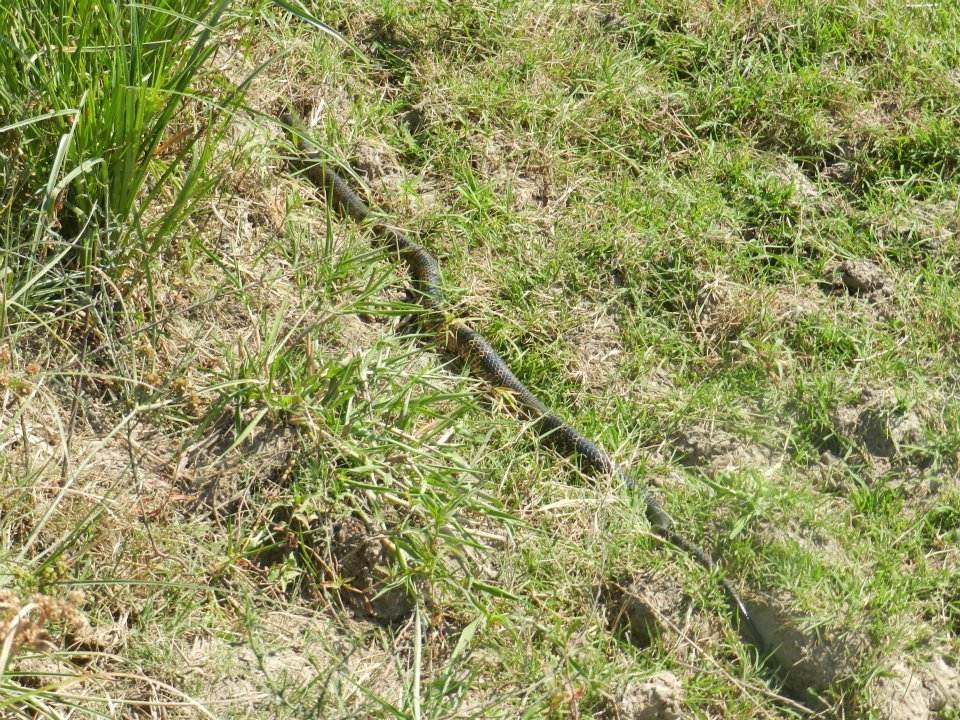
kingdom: Animalia
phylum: Chordata
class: Squamata
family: Colubridae
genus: Hydrodynastes
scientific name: Hydrodynastes gigas
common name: False water cobra
